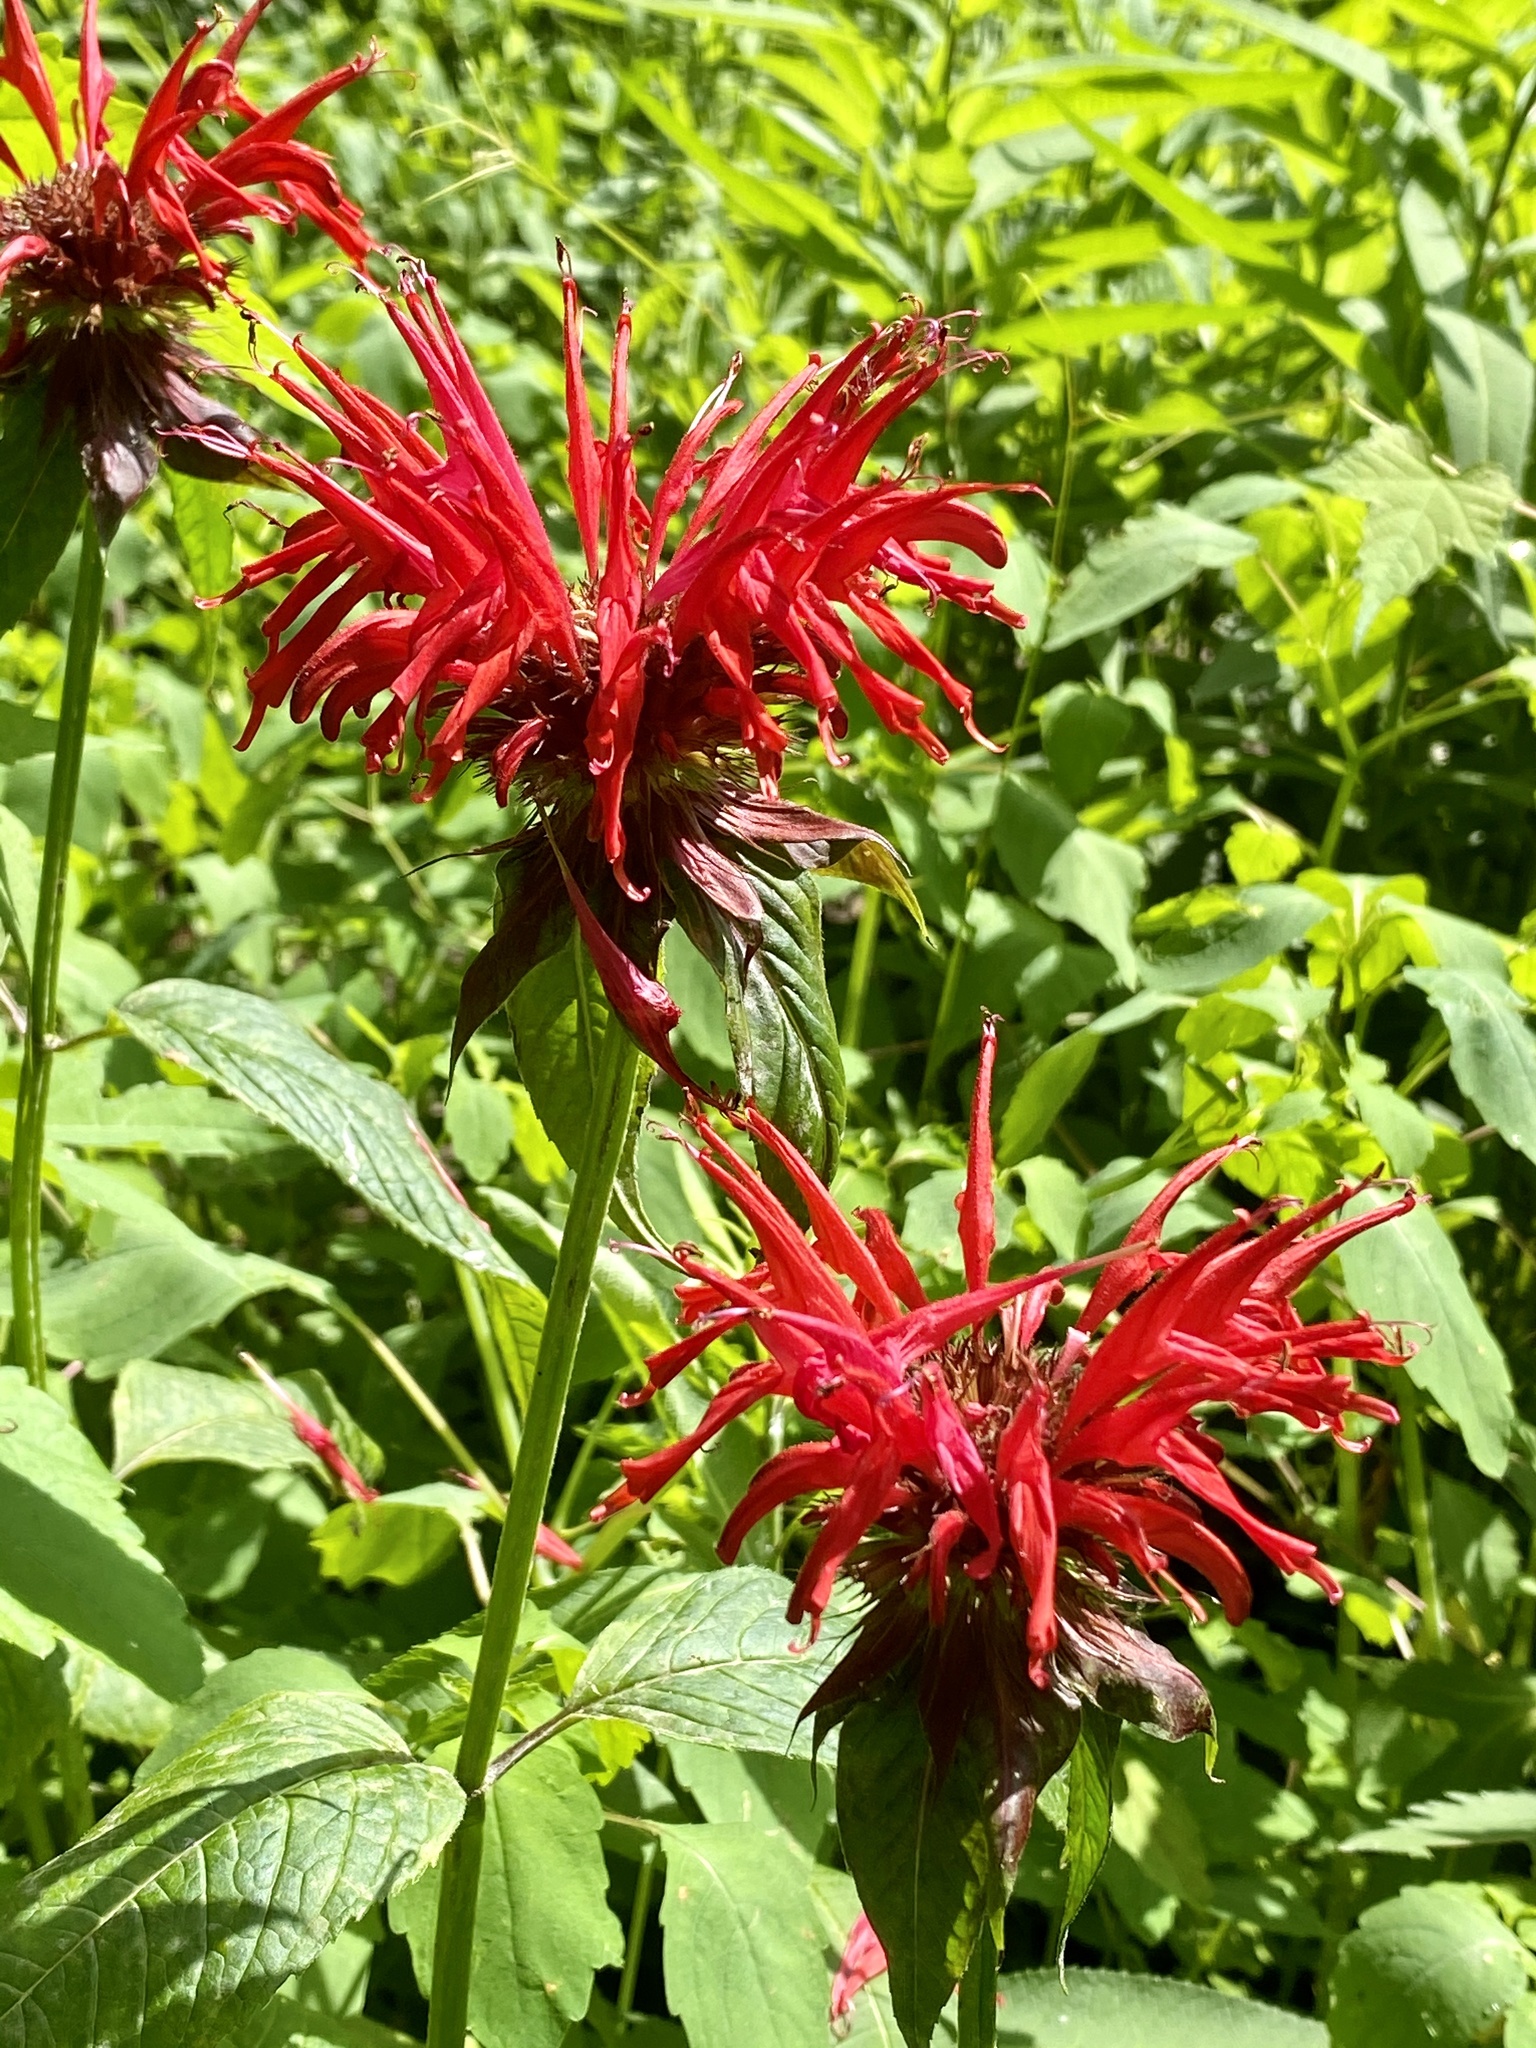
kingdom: Plantae
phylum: Tracheophyta
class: Magnoliopsida
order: Lamiales
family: Lamiaceae
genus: Monarda
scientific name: Monarda didyma
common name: Beebalm
